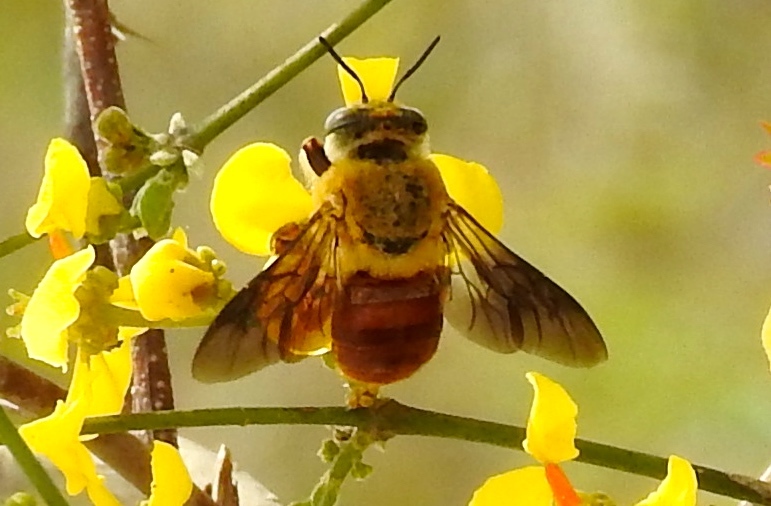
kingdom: Animalia
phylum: Arthropoda
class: Insecta
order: Hymenoptera
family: Apidae
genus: Centris
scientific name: Centris
